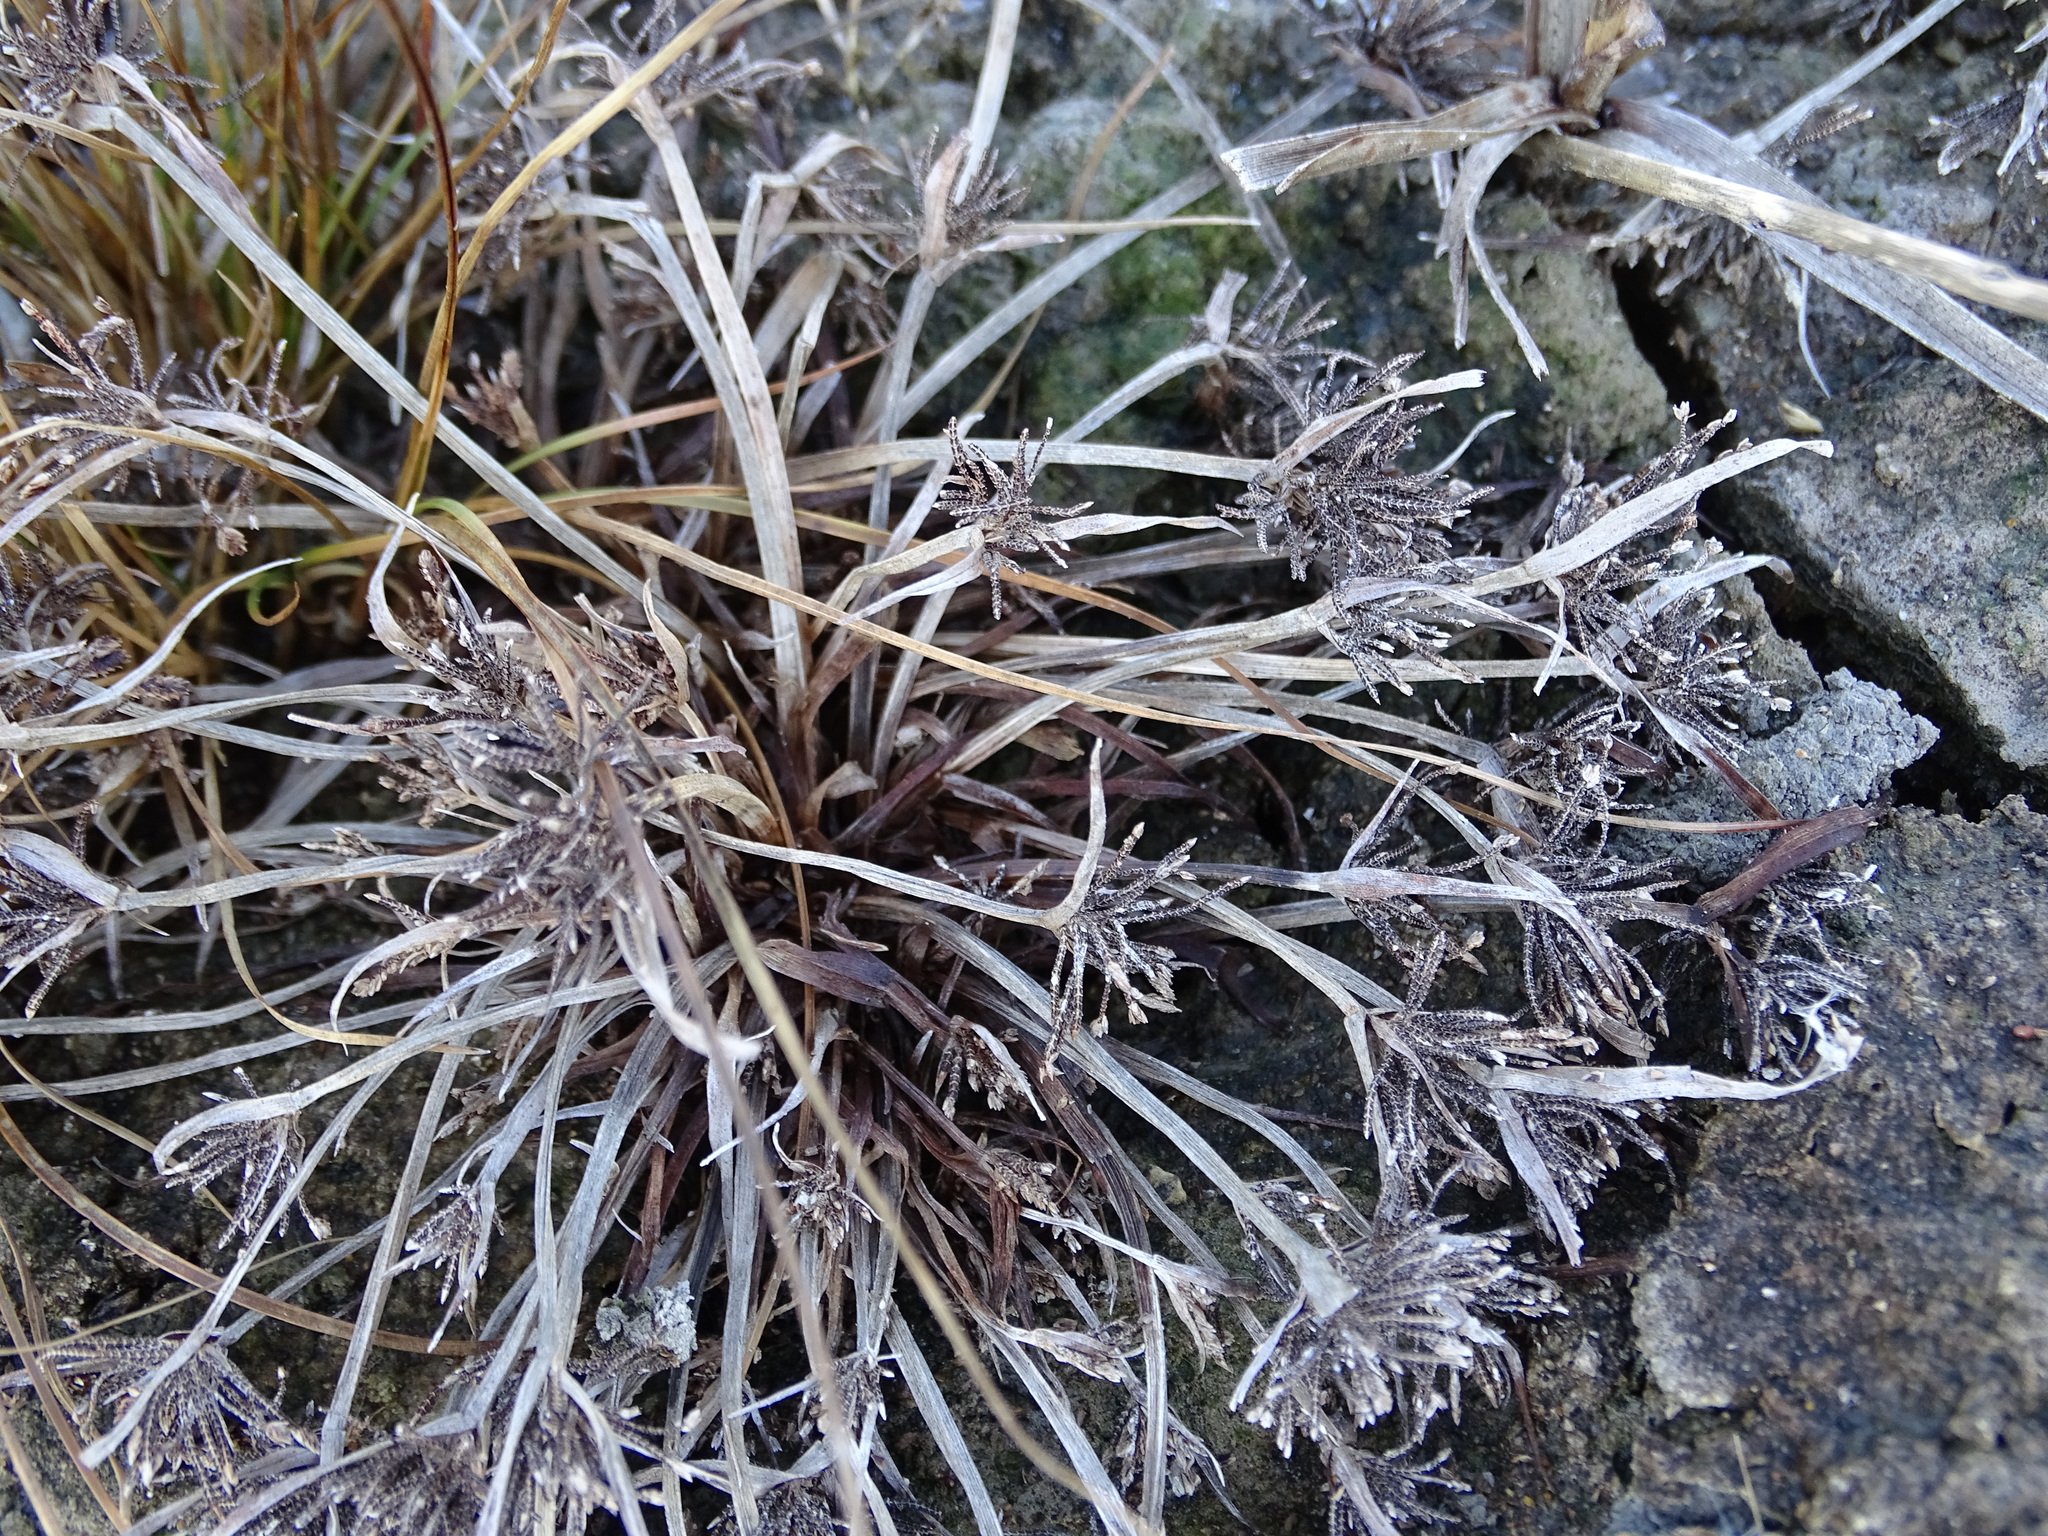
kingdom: Plantae
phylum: Tracheophyta
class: Liliopsida
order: Poales
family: Cyperaceae
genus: Cyperus
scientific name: Cyperus fuscus
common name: Brown galingale
